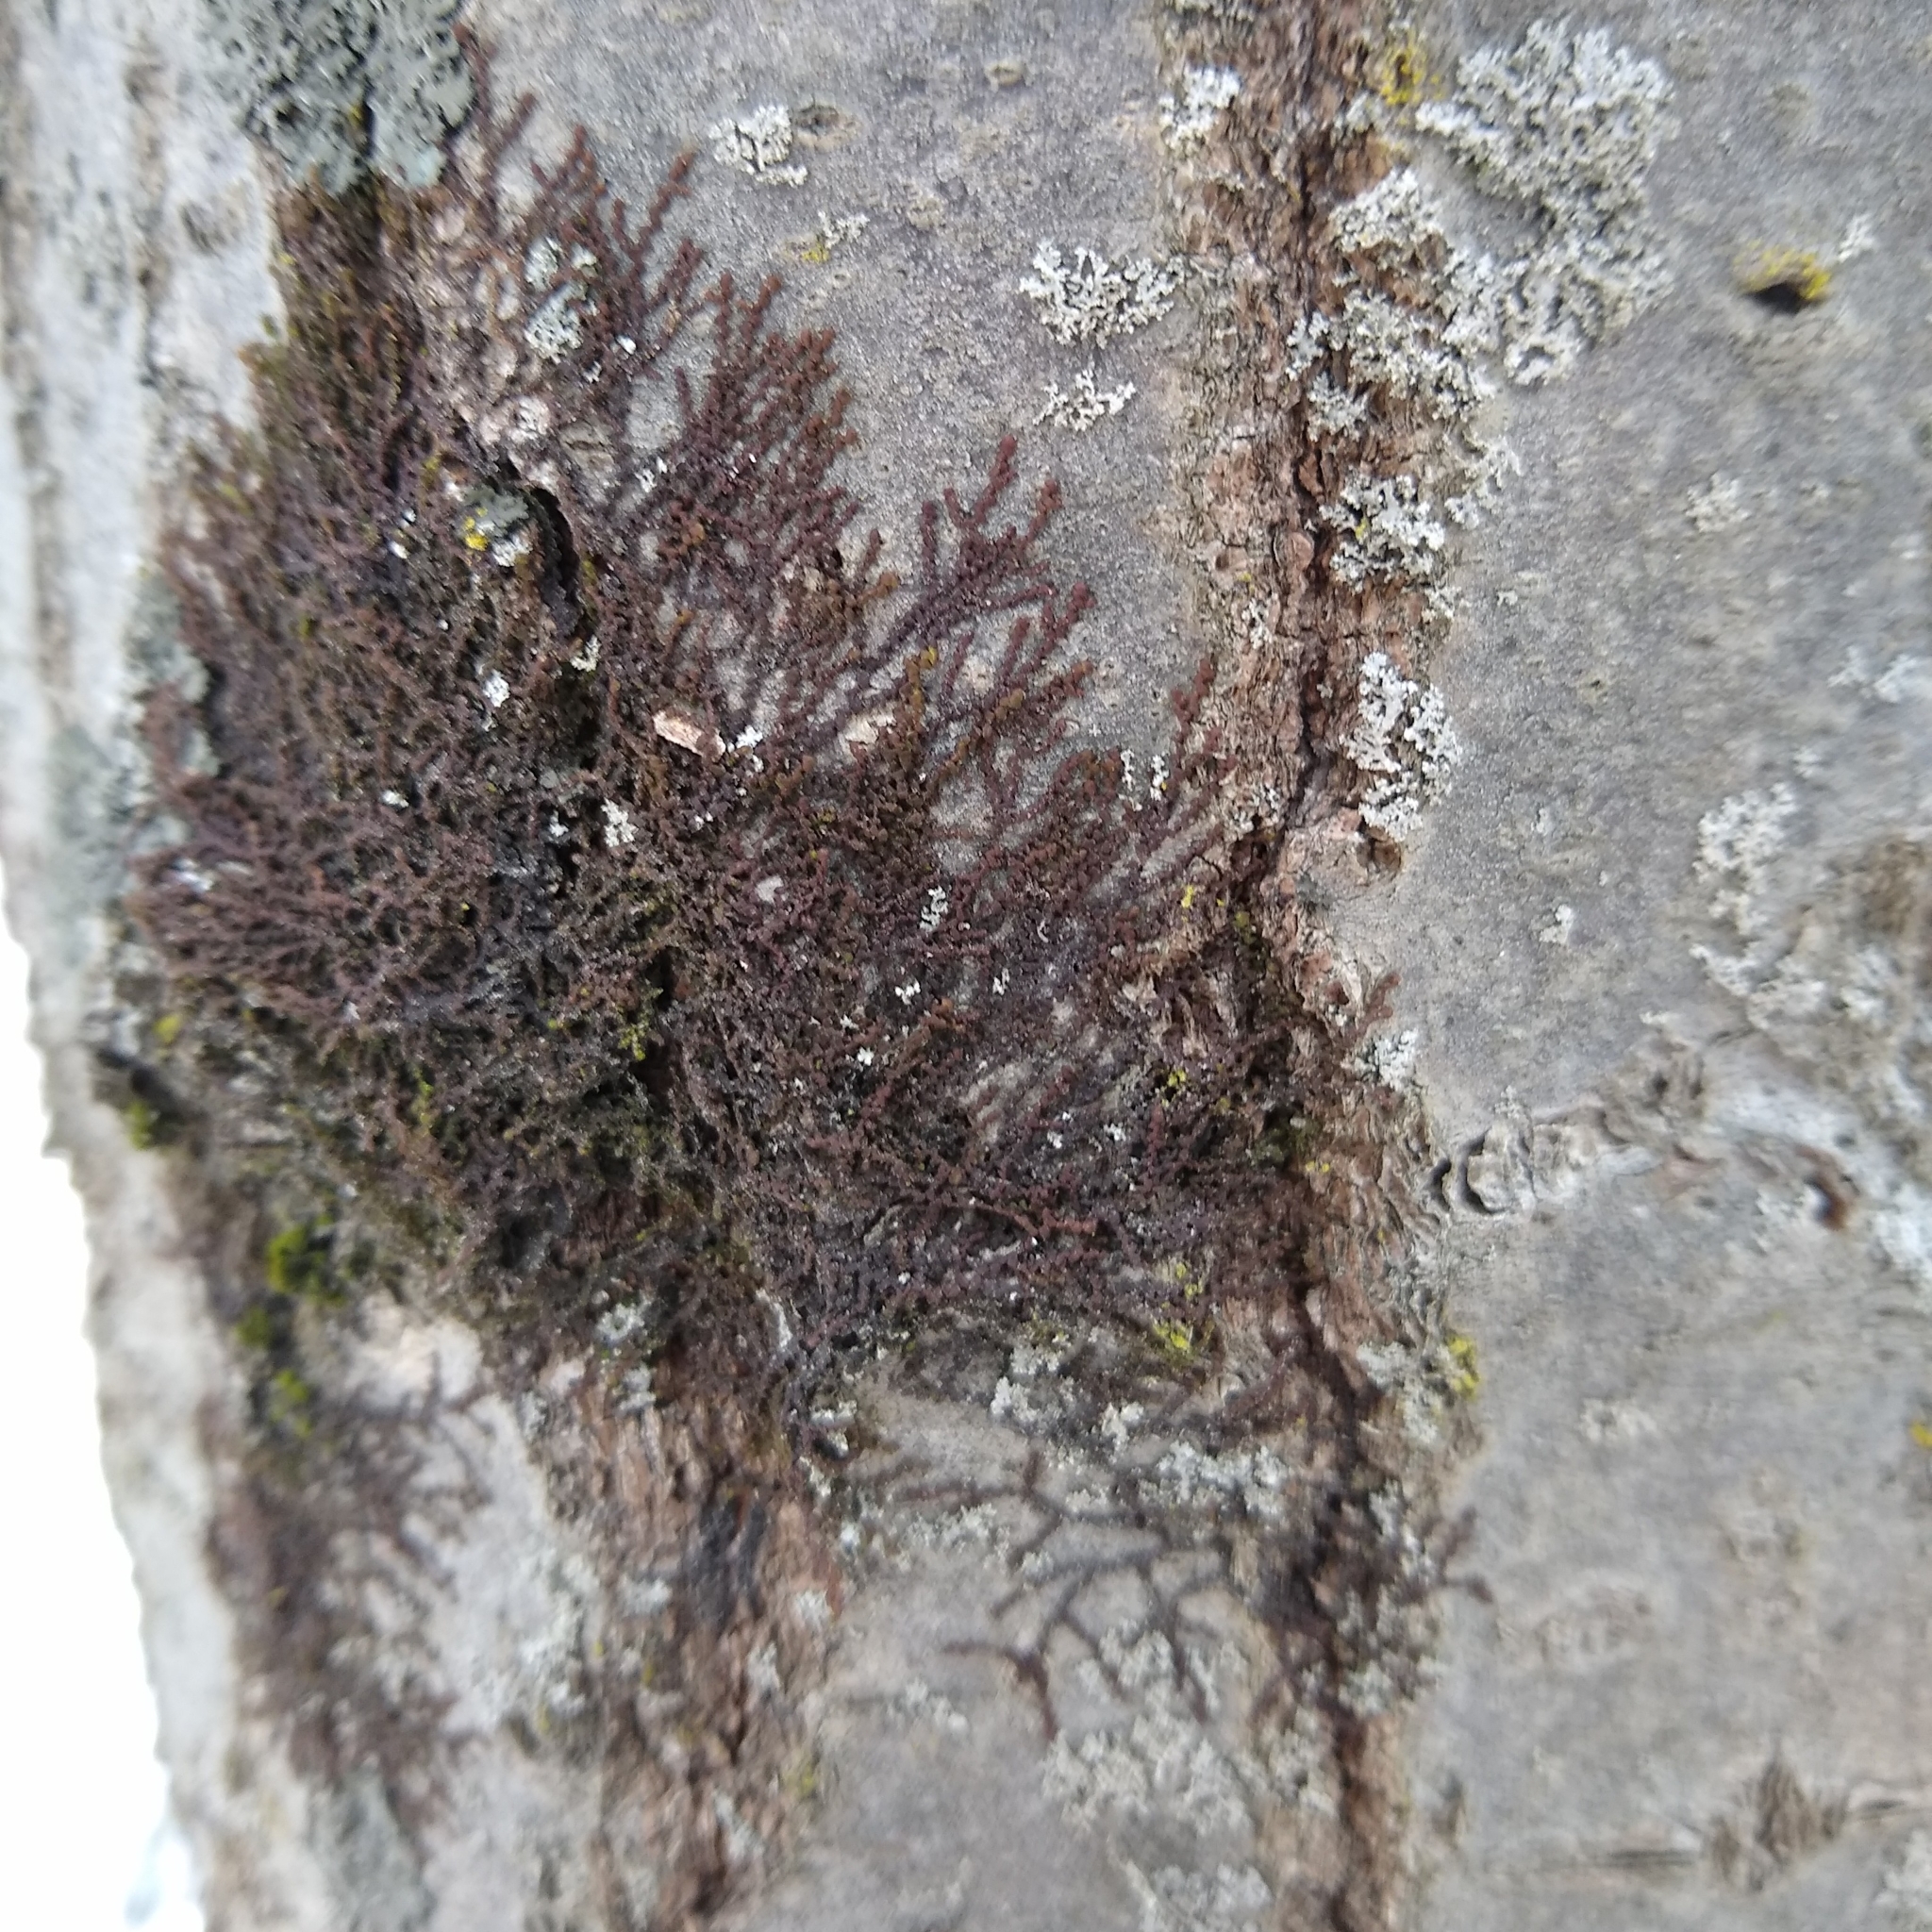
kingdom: Plantae
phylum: Marchantiophyta
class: Jungermanniopsida
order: Porellales
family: Frullaniaceae
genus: Frullania
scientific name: Frullania eboracensis
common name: New york scalewort
